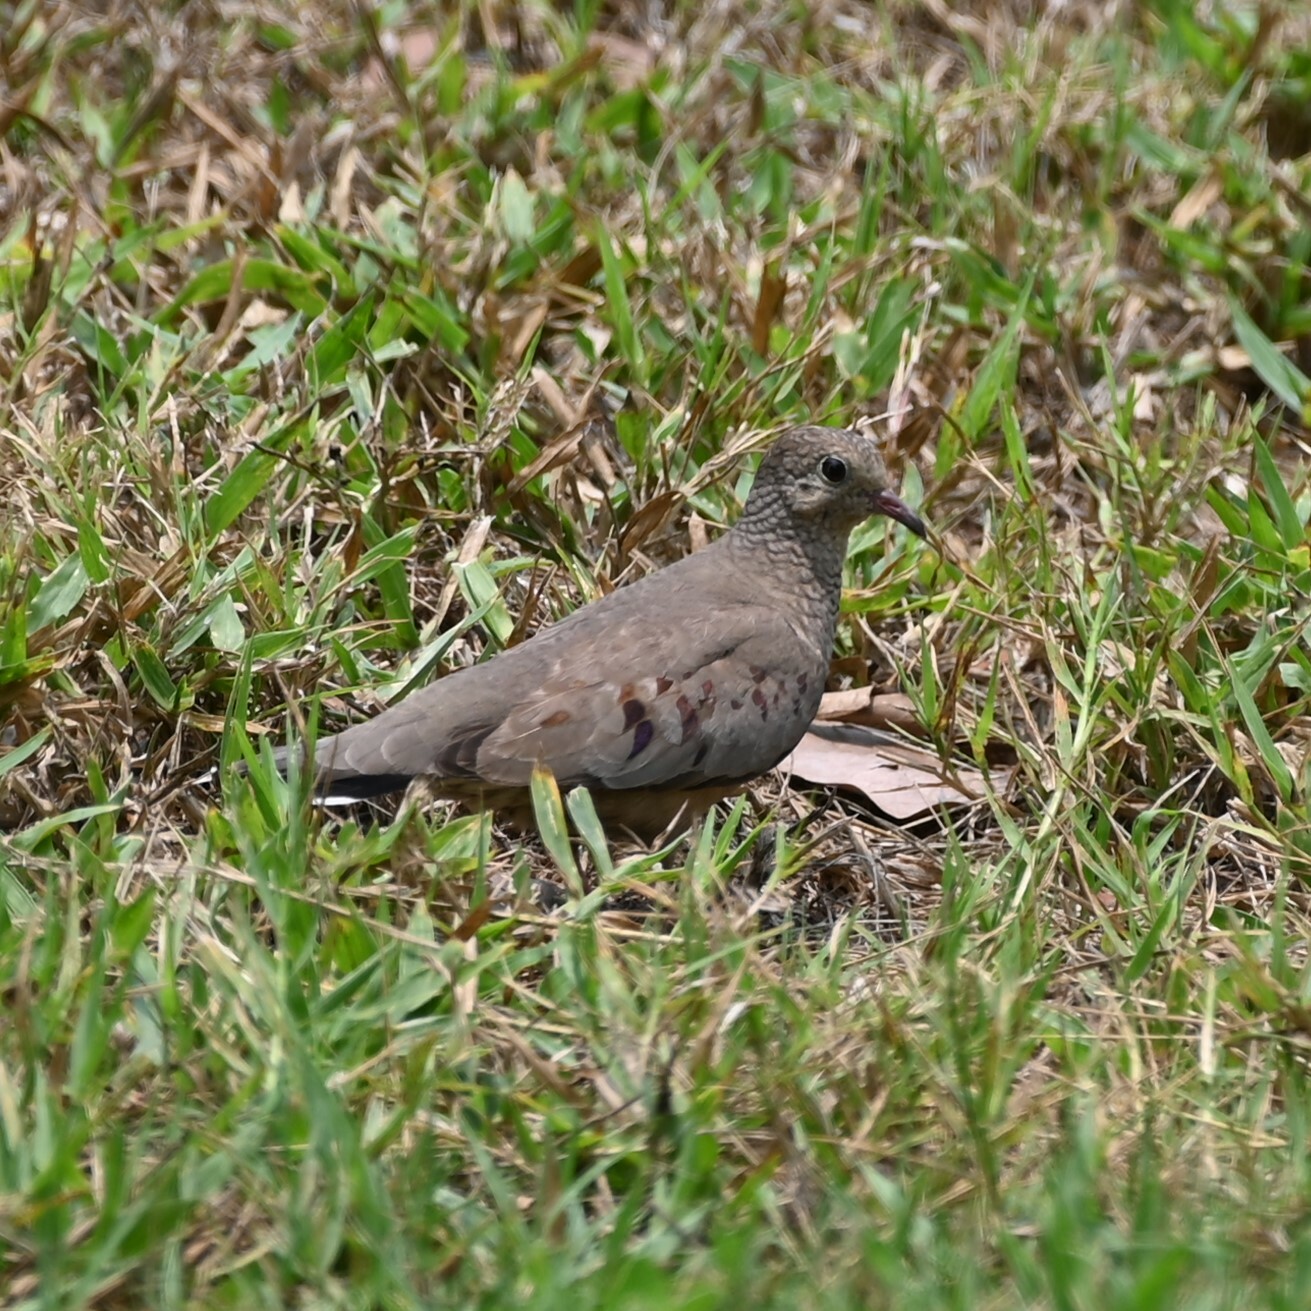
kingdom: Animalia
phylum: Chordata
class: Aves
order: Columbiformes
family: Columbidae
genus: Columbina
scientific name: Columbina passerina
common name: Common ground-dove
